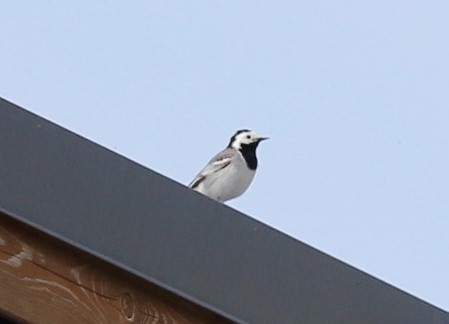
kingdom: Animalia
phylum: Chordata
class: Aves
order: Passeriformes
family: Motacillidae
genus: Motacilla
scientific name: Motacilla alba
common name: White wagtail
